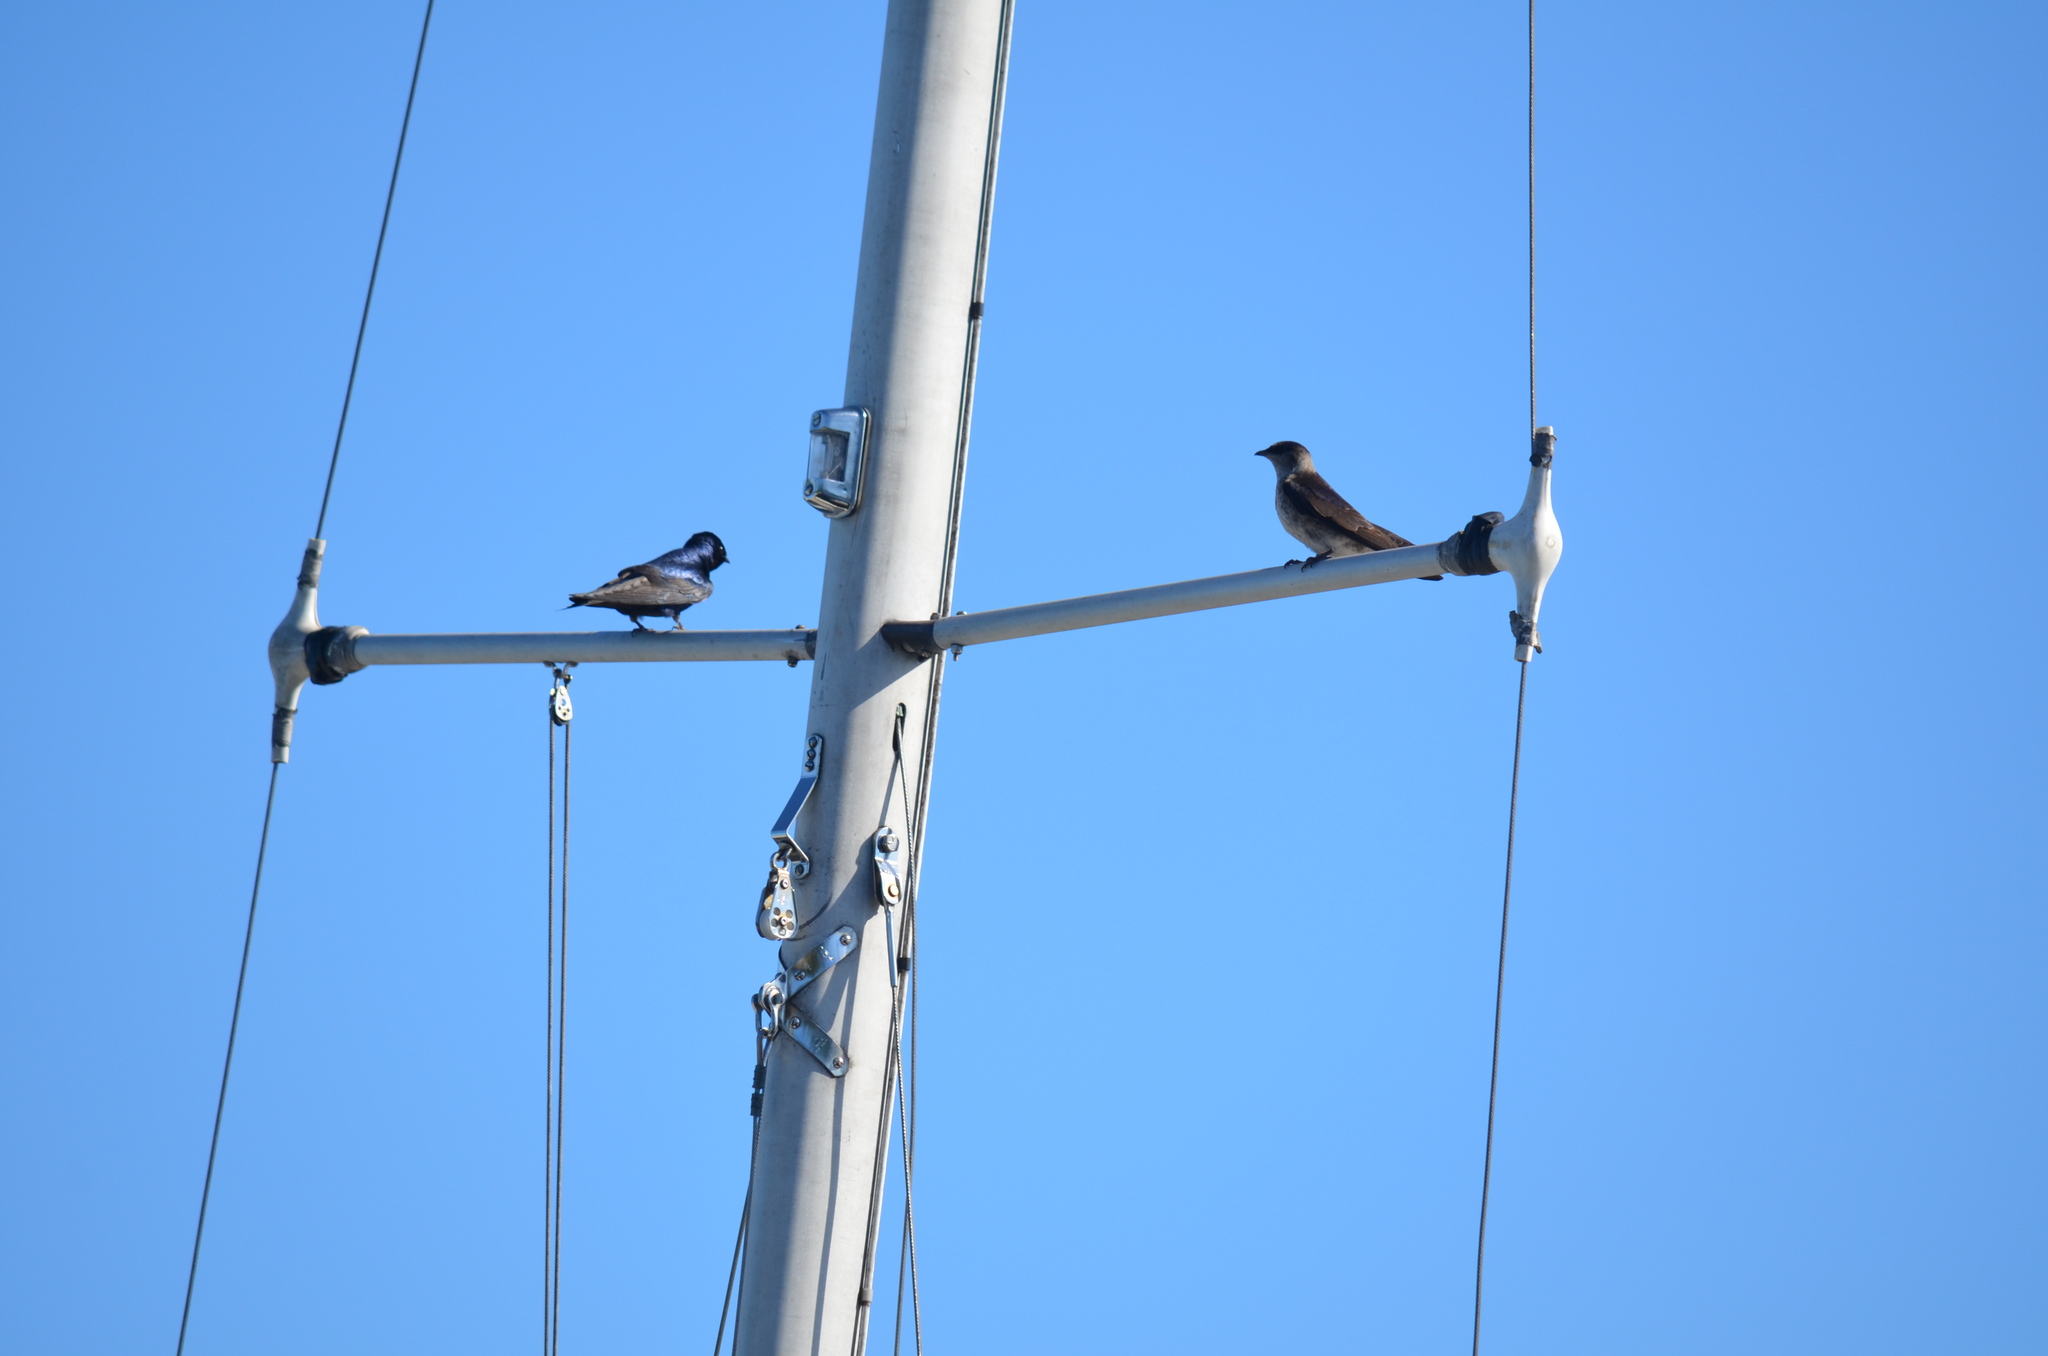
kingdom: Animalia
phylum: Chordata
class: Aves
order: Passeriformes
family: Hirundinidae
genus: Progne
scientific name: Progne subis
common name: Purple martin
